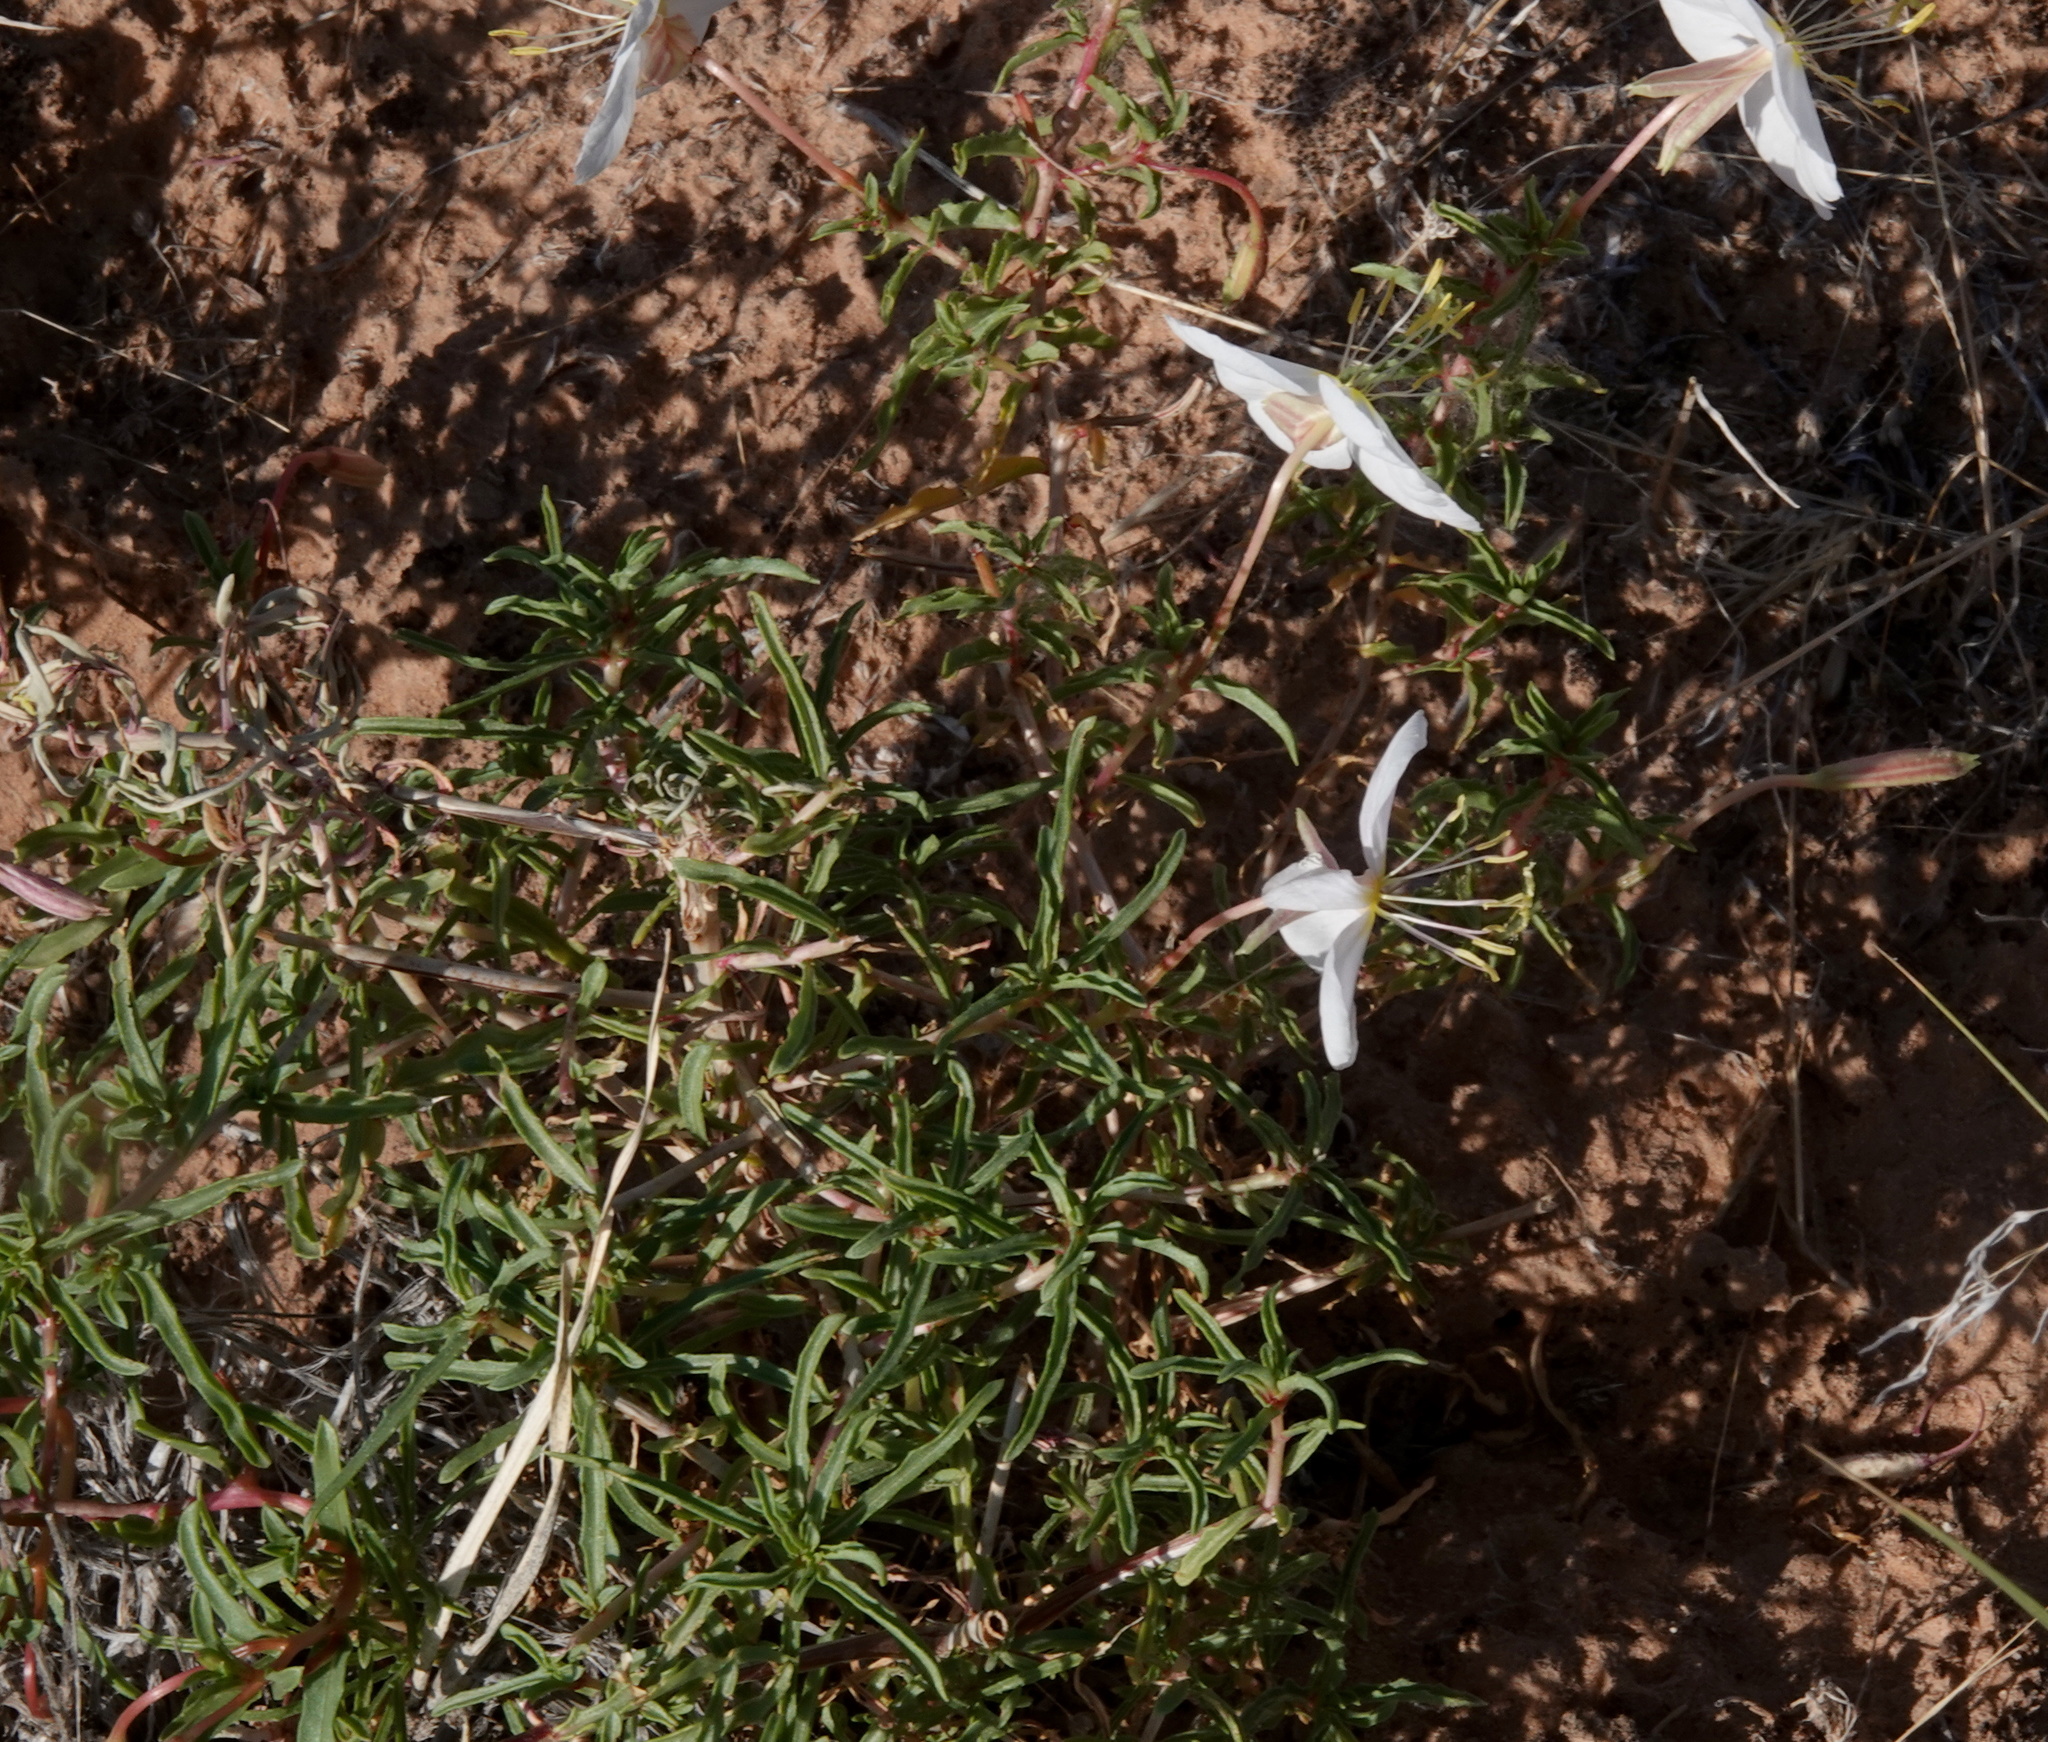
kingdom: Plantae
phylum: Tracheophyta
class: Magnoliopsida
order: Myrtales
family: Onagraceae
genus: Oenothera
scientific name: Oenothera pallida
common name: Pale evening-primrose
